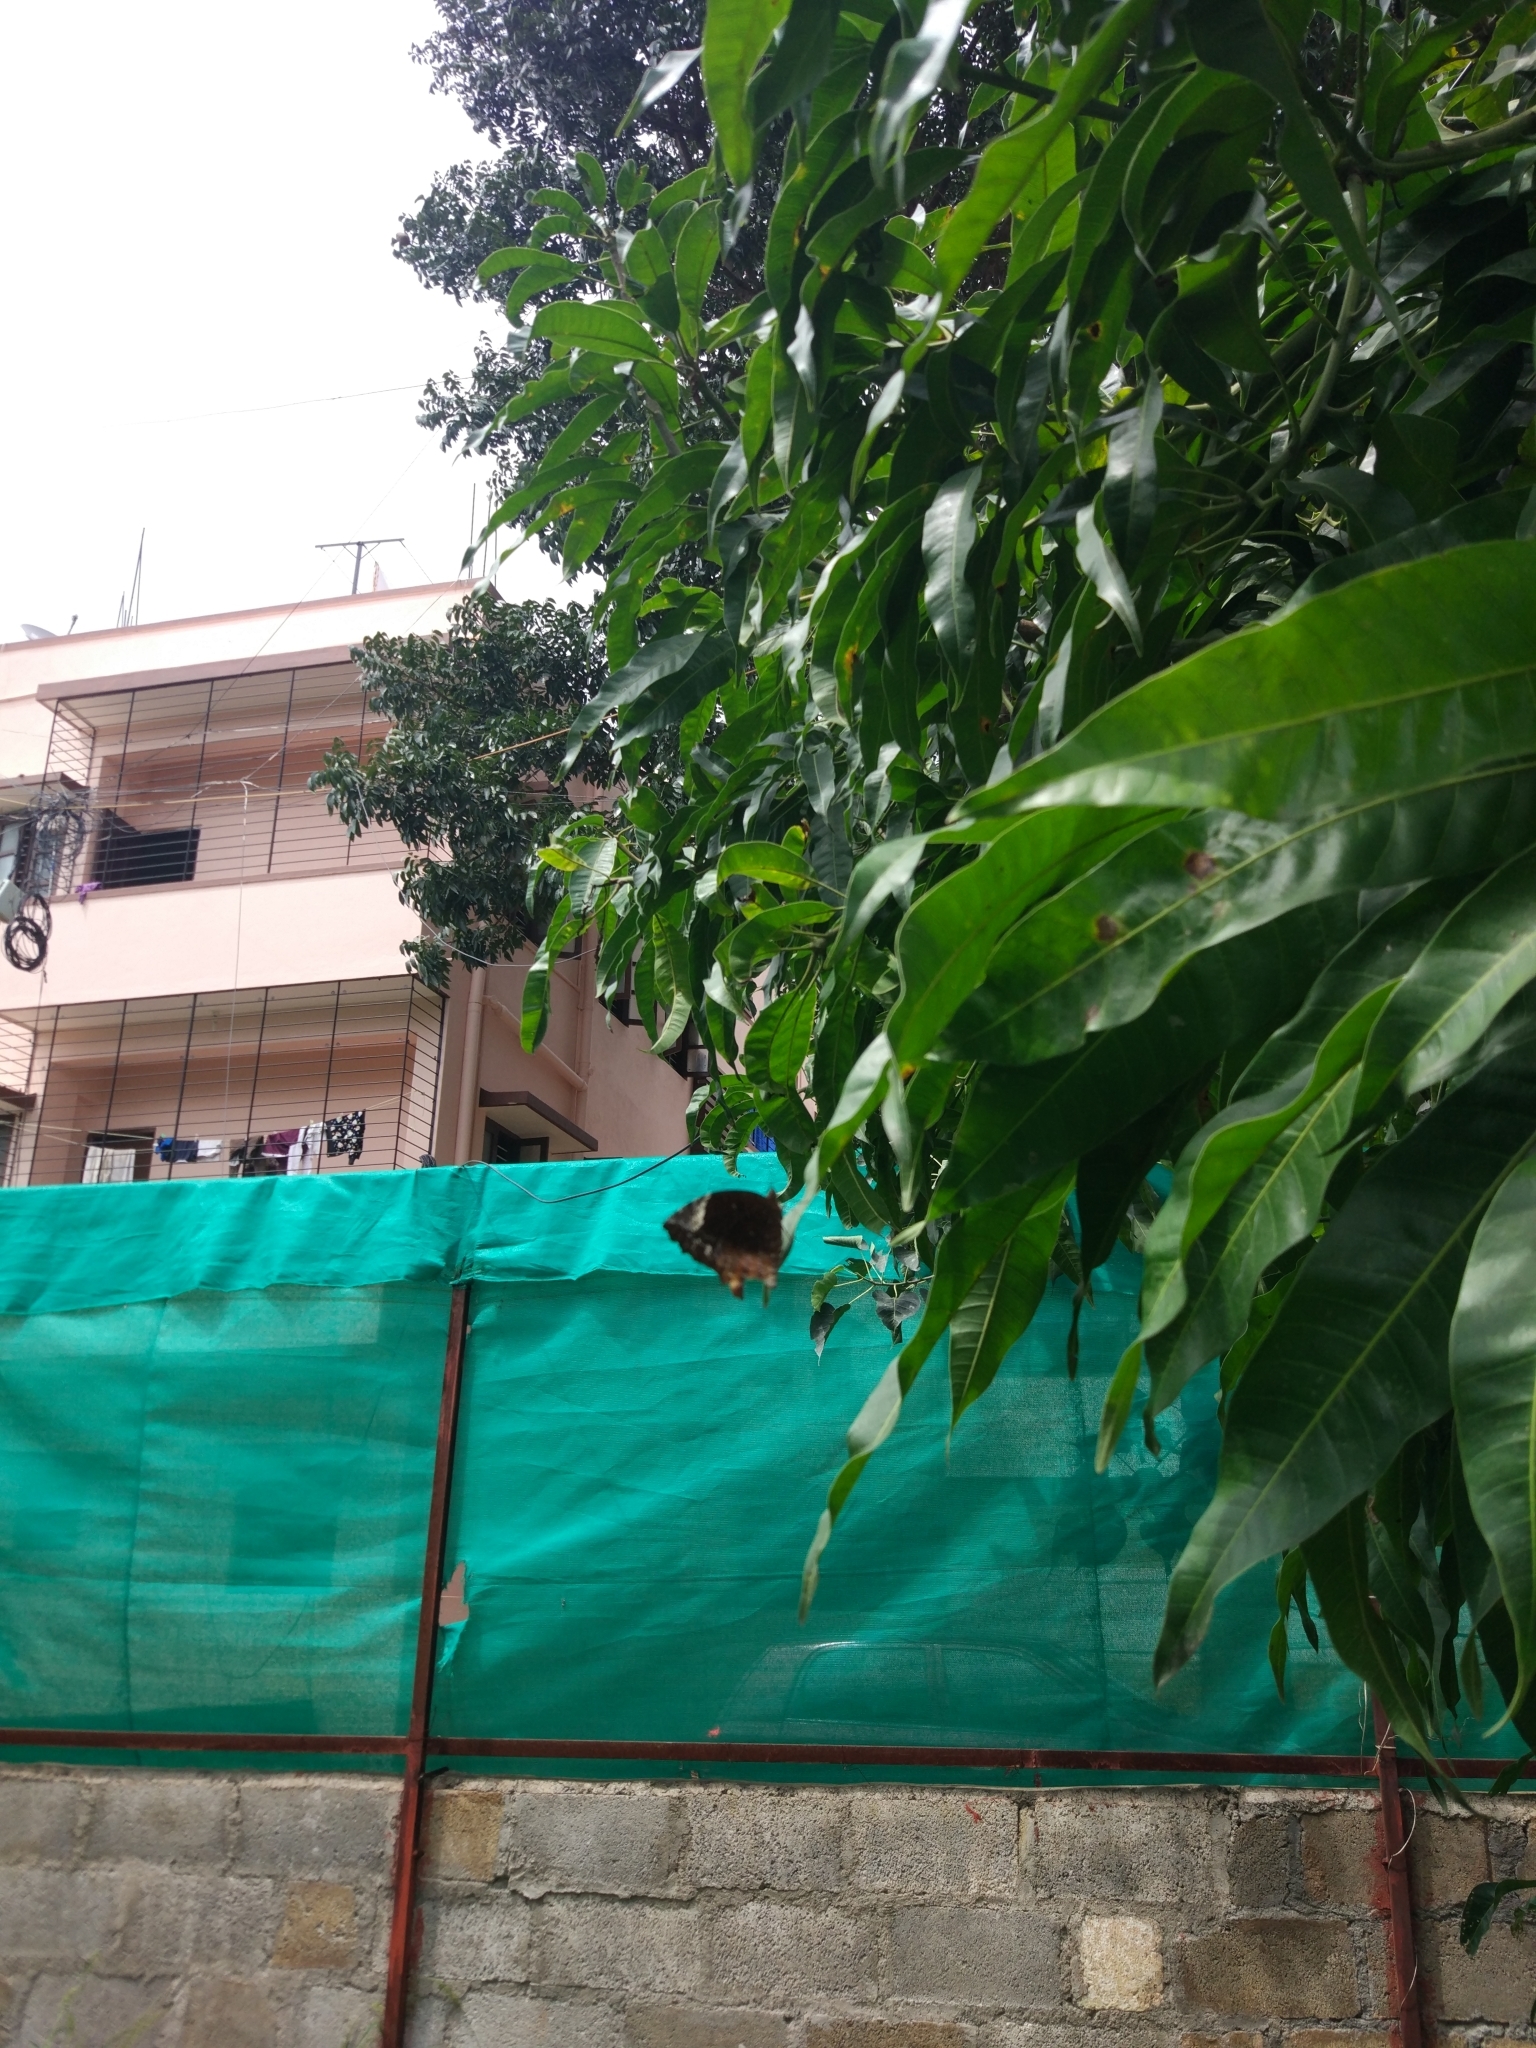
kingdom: Animalia
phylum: Arthropoda
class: Insecta
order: Lepidoptera
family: Nymphalidae
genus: Elymnias
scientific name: Elymnias caudata
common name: Tailed palmfly
